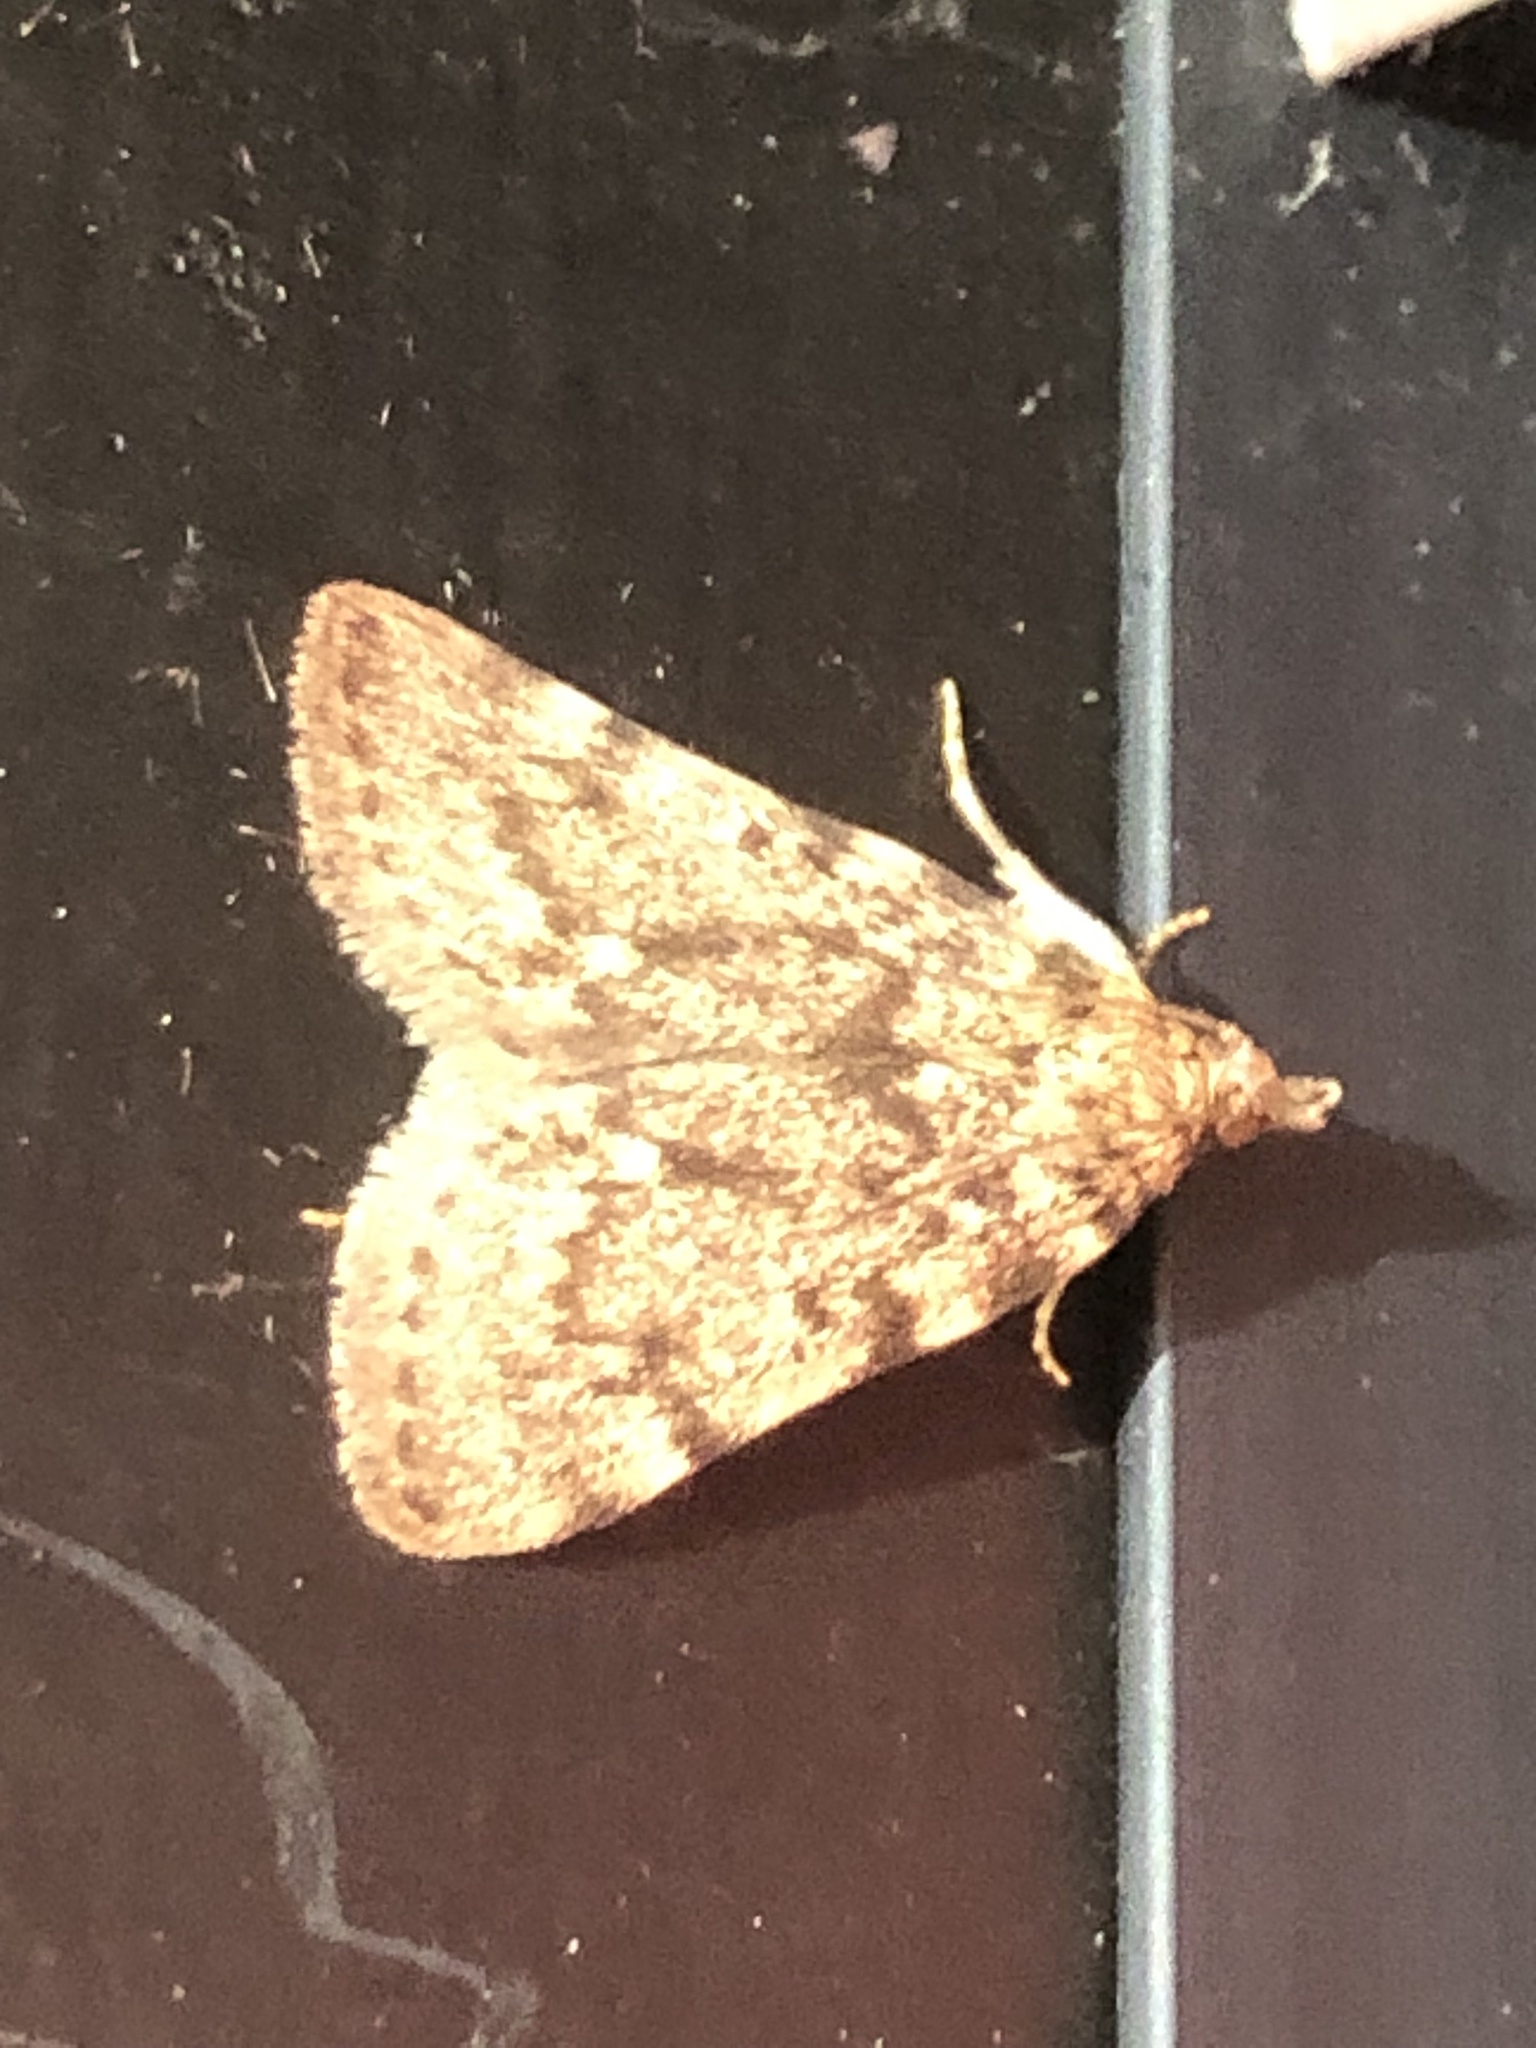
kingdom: Animalia
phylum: Arthropoda
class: Insecta
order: Lepidoptera
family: Pyralidae
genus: Aglossa
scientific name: Aglossa pinguinalis
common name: Large tabby
